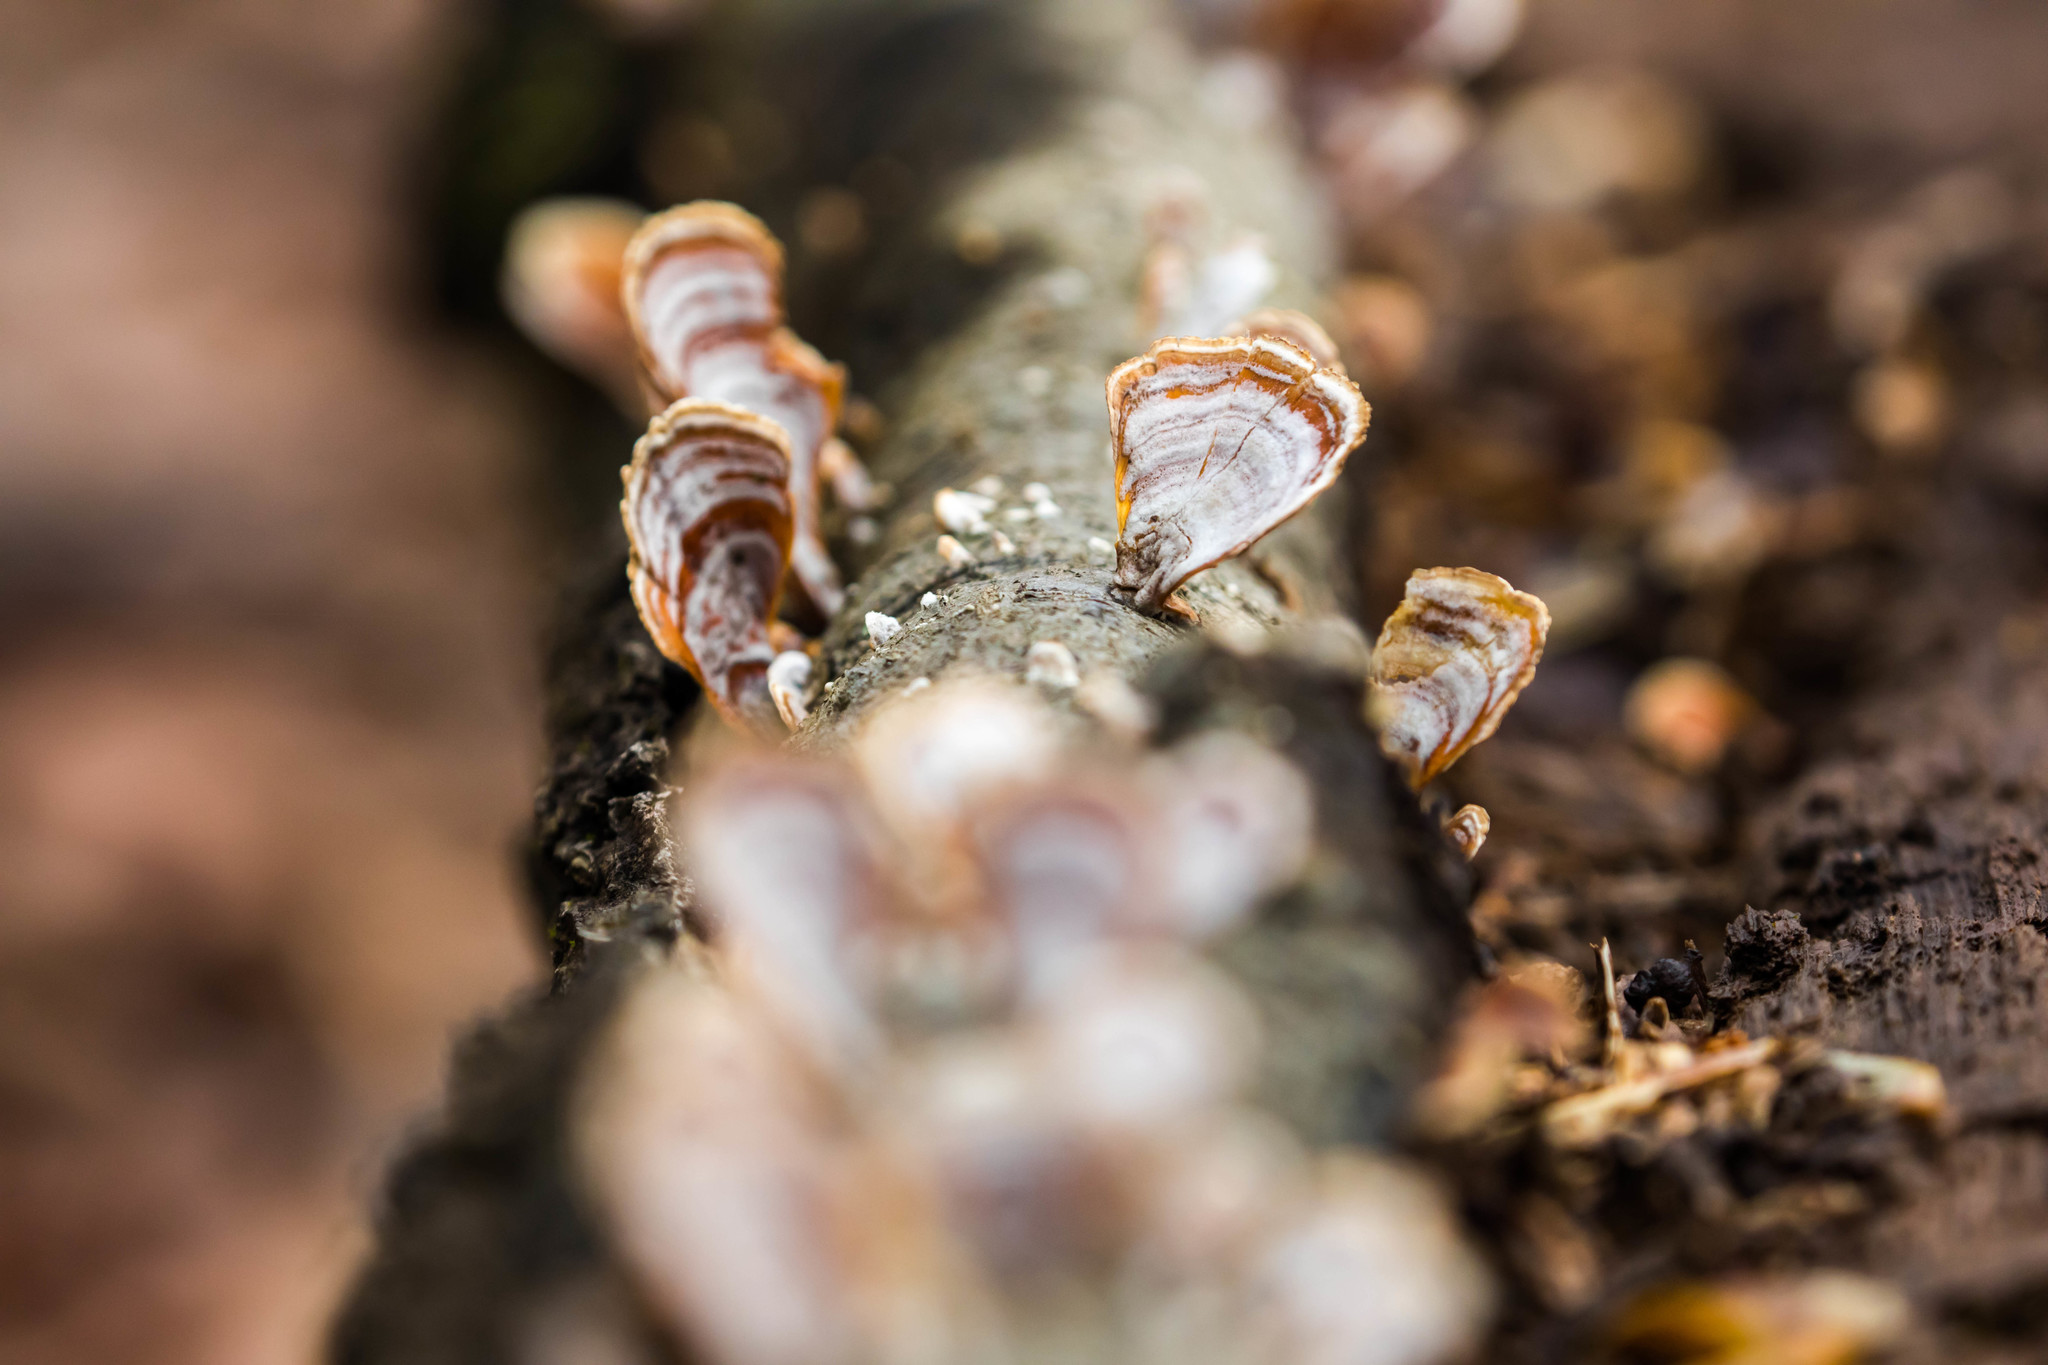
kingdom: Fungi
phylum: Basidiomycota
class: Agaricomycetes
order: Russulales
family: Stereaceae
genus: Stereum
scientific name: Stereum lobatum
